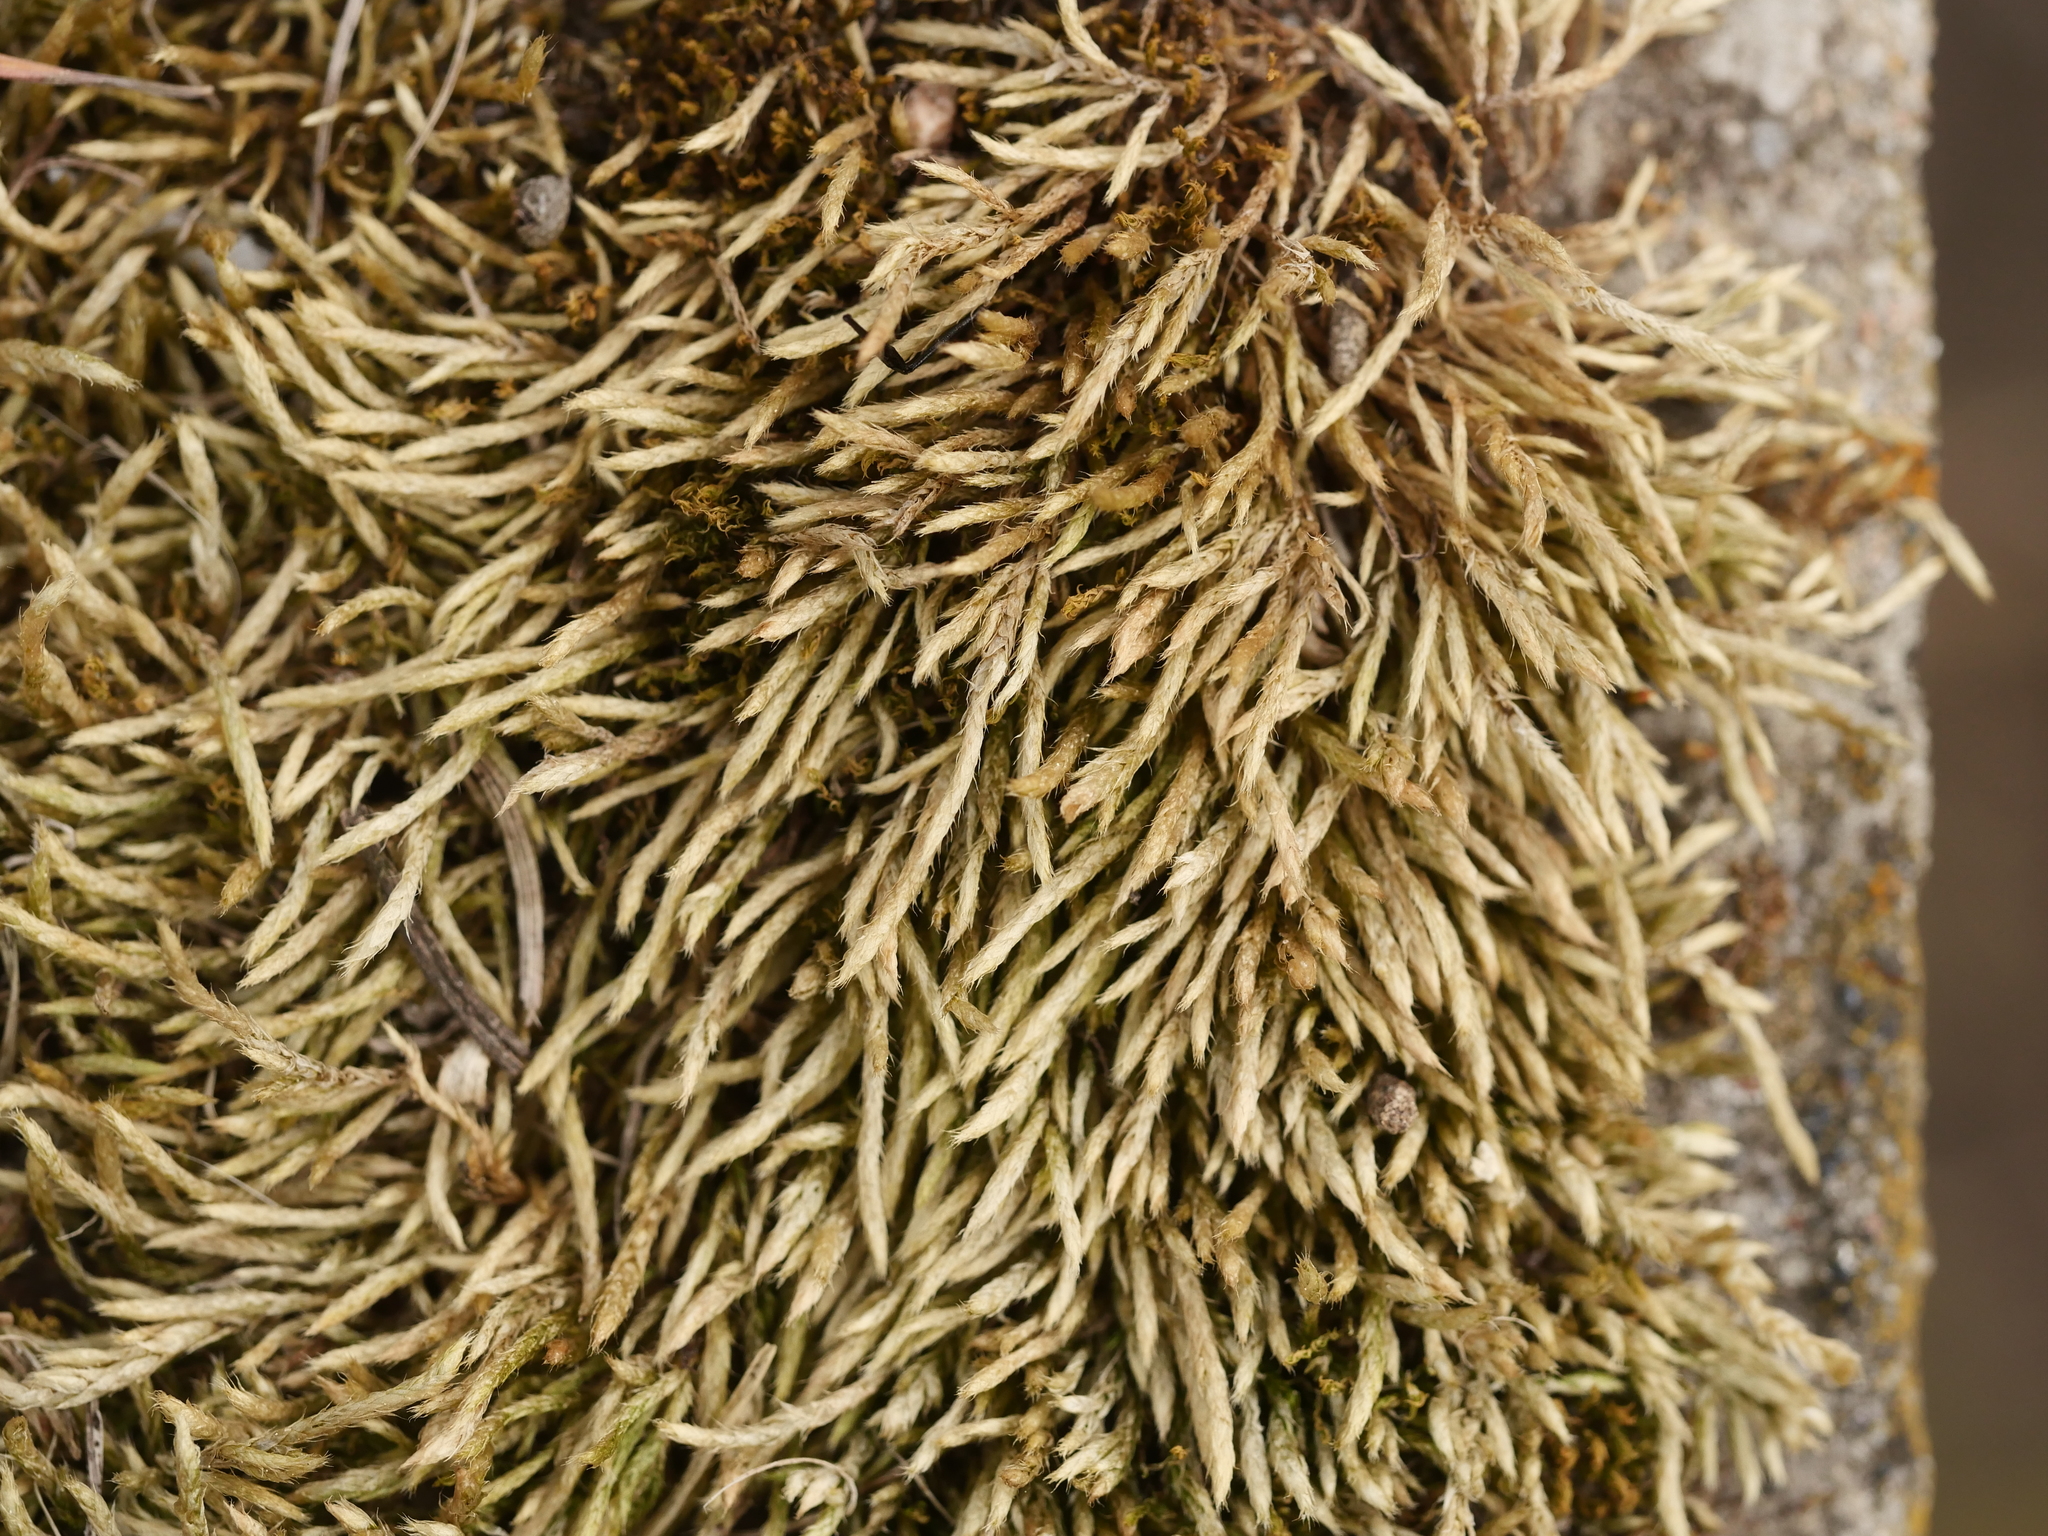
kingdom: Plantae
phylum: Bryophyta
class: Bryopsida
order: Hypnales
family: Brachytheciaceae
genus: Brachythecium
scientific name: Brachythecium albicans
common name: Whitish ragged moss
